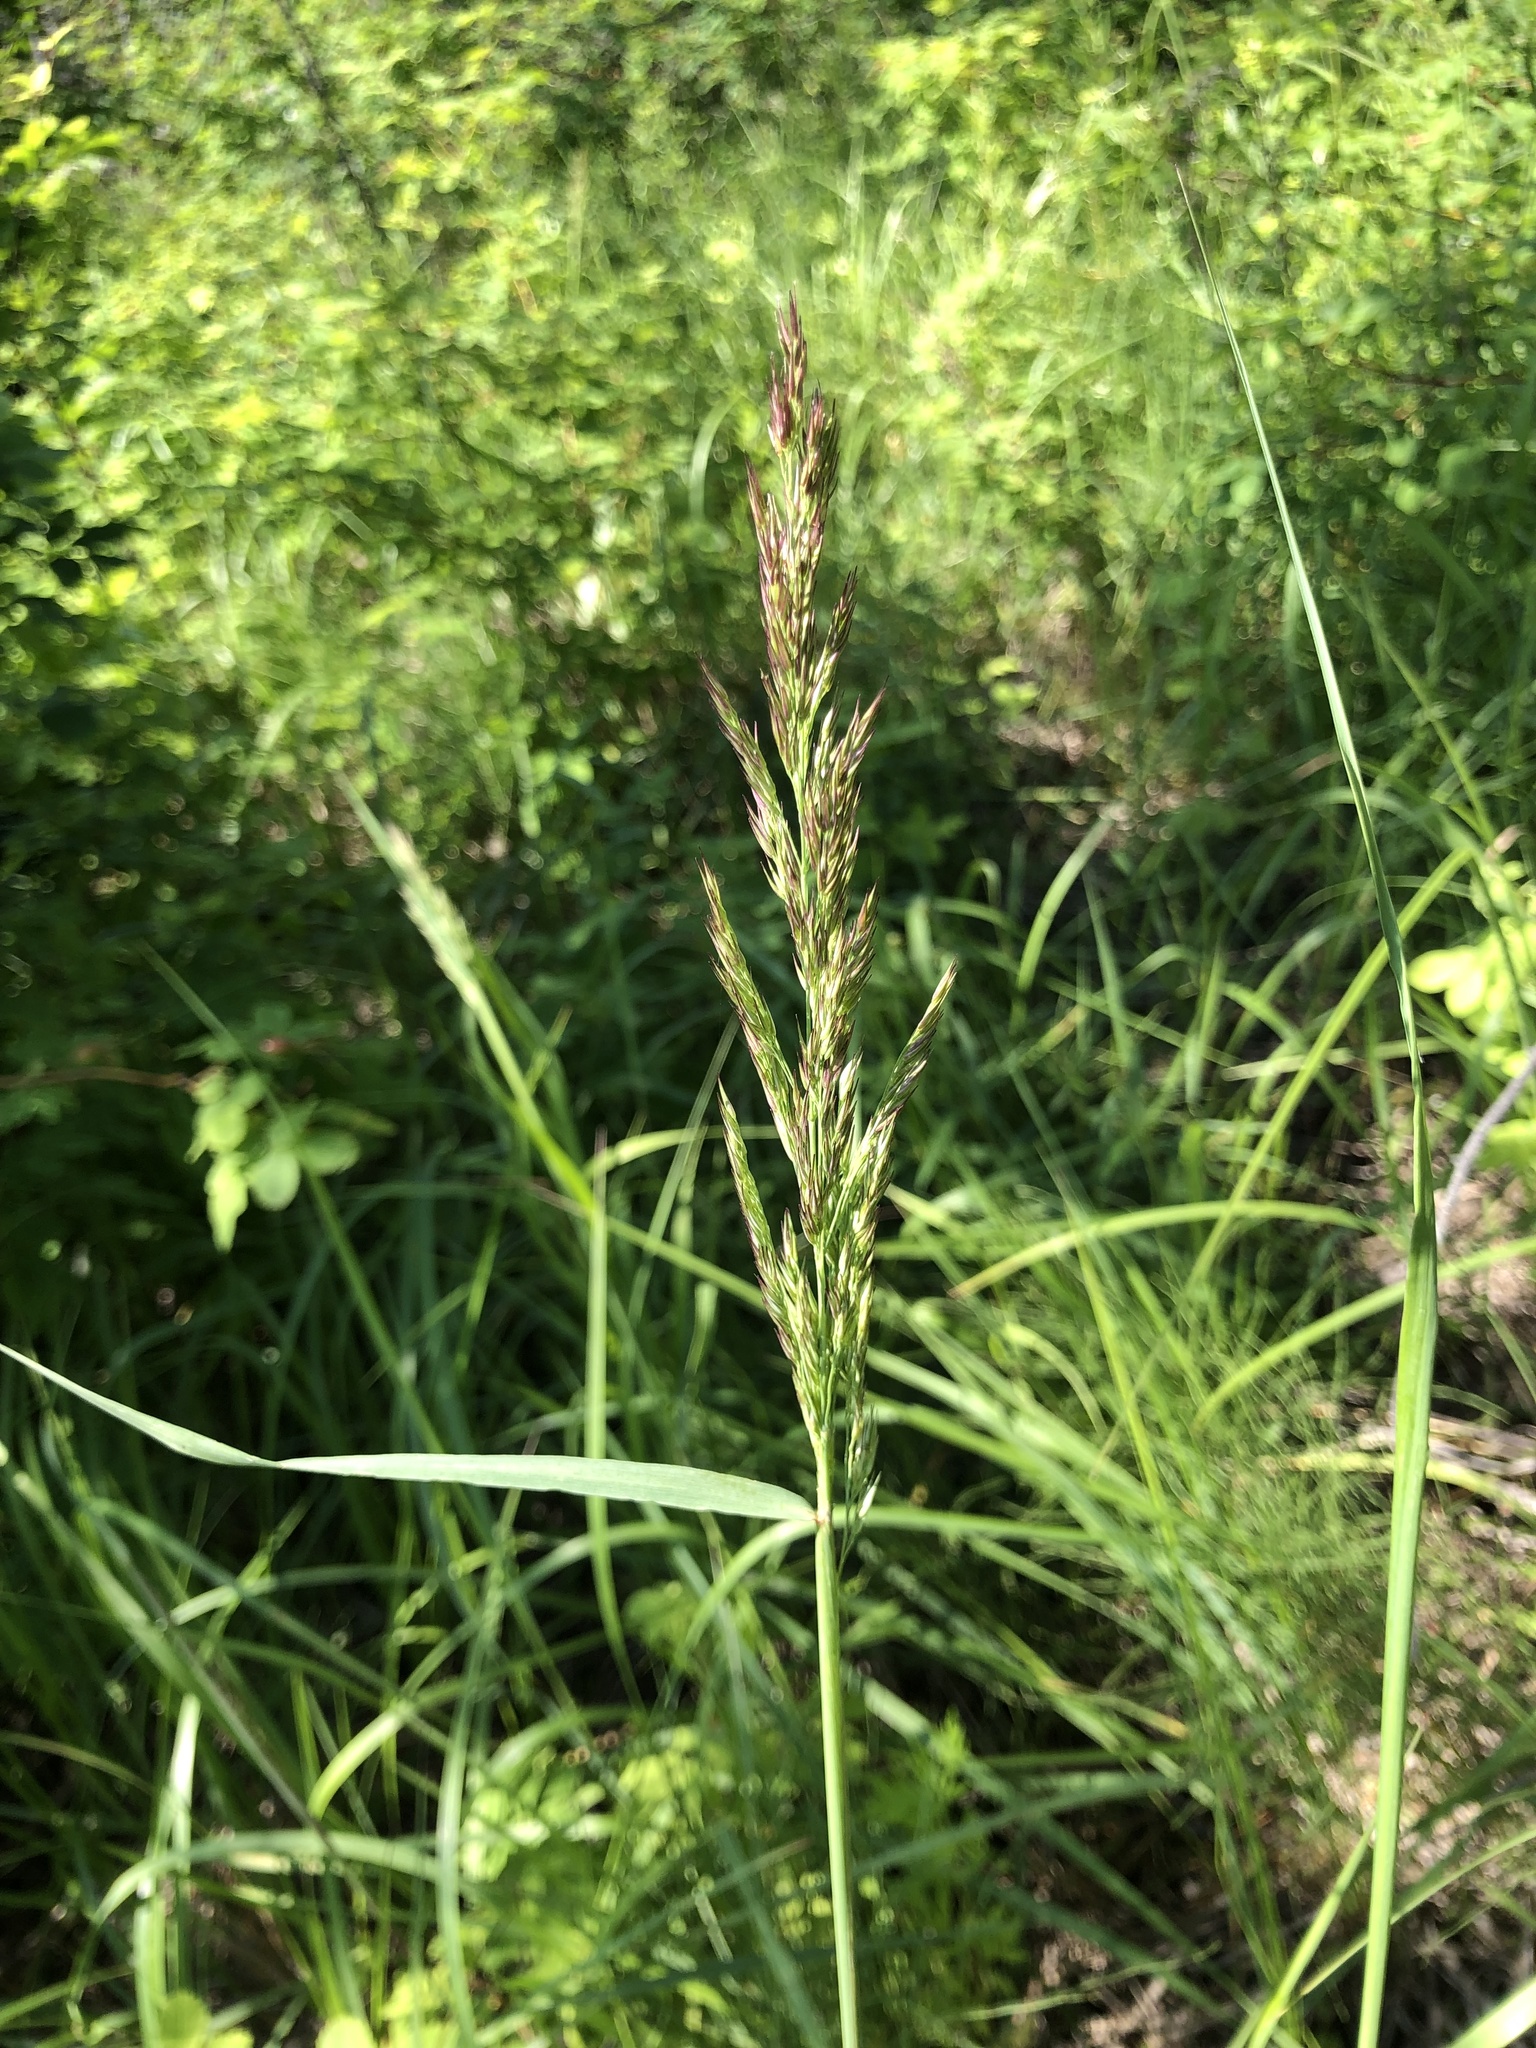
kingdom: Plantae
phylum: Tracheophyta
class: Liliopsida
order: Poales
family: Poaceae
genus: Calamagrostis
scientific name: Calamagrostis epigejos
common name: Wood small-reed
